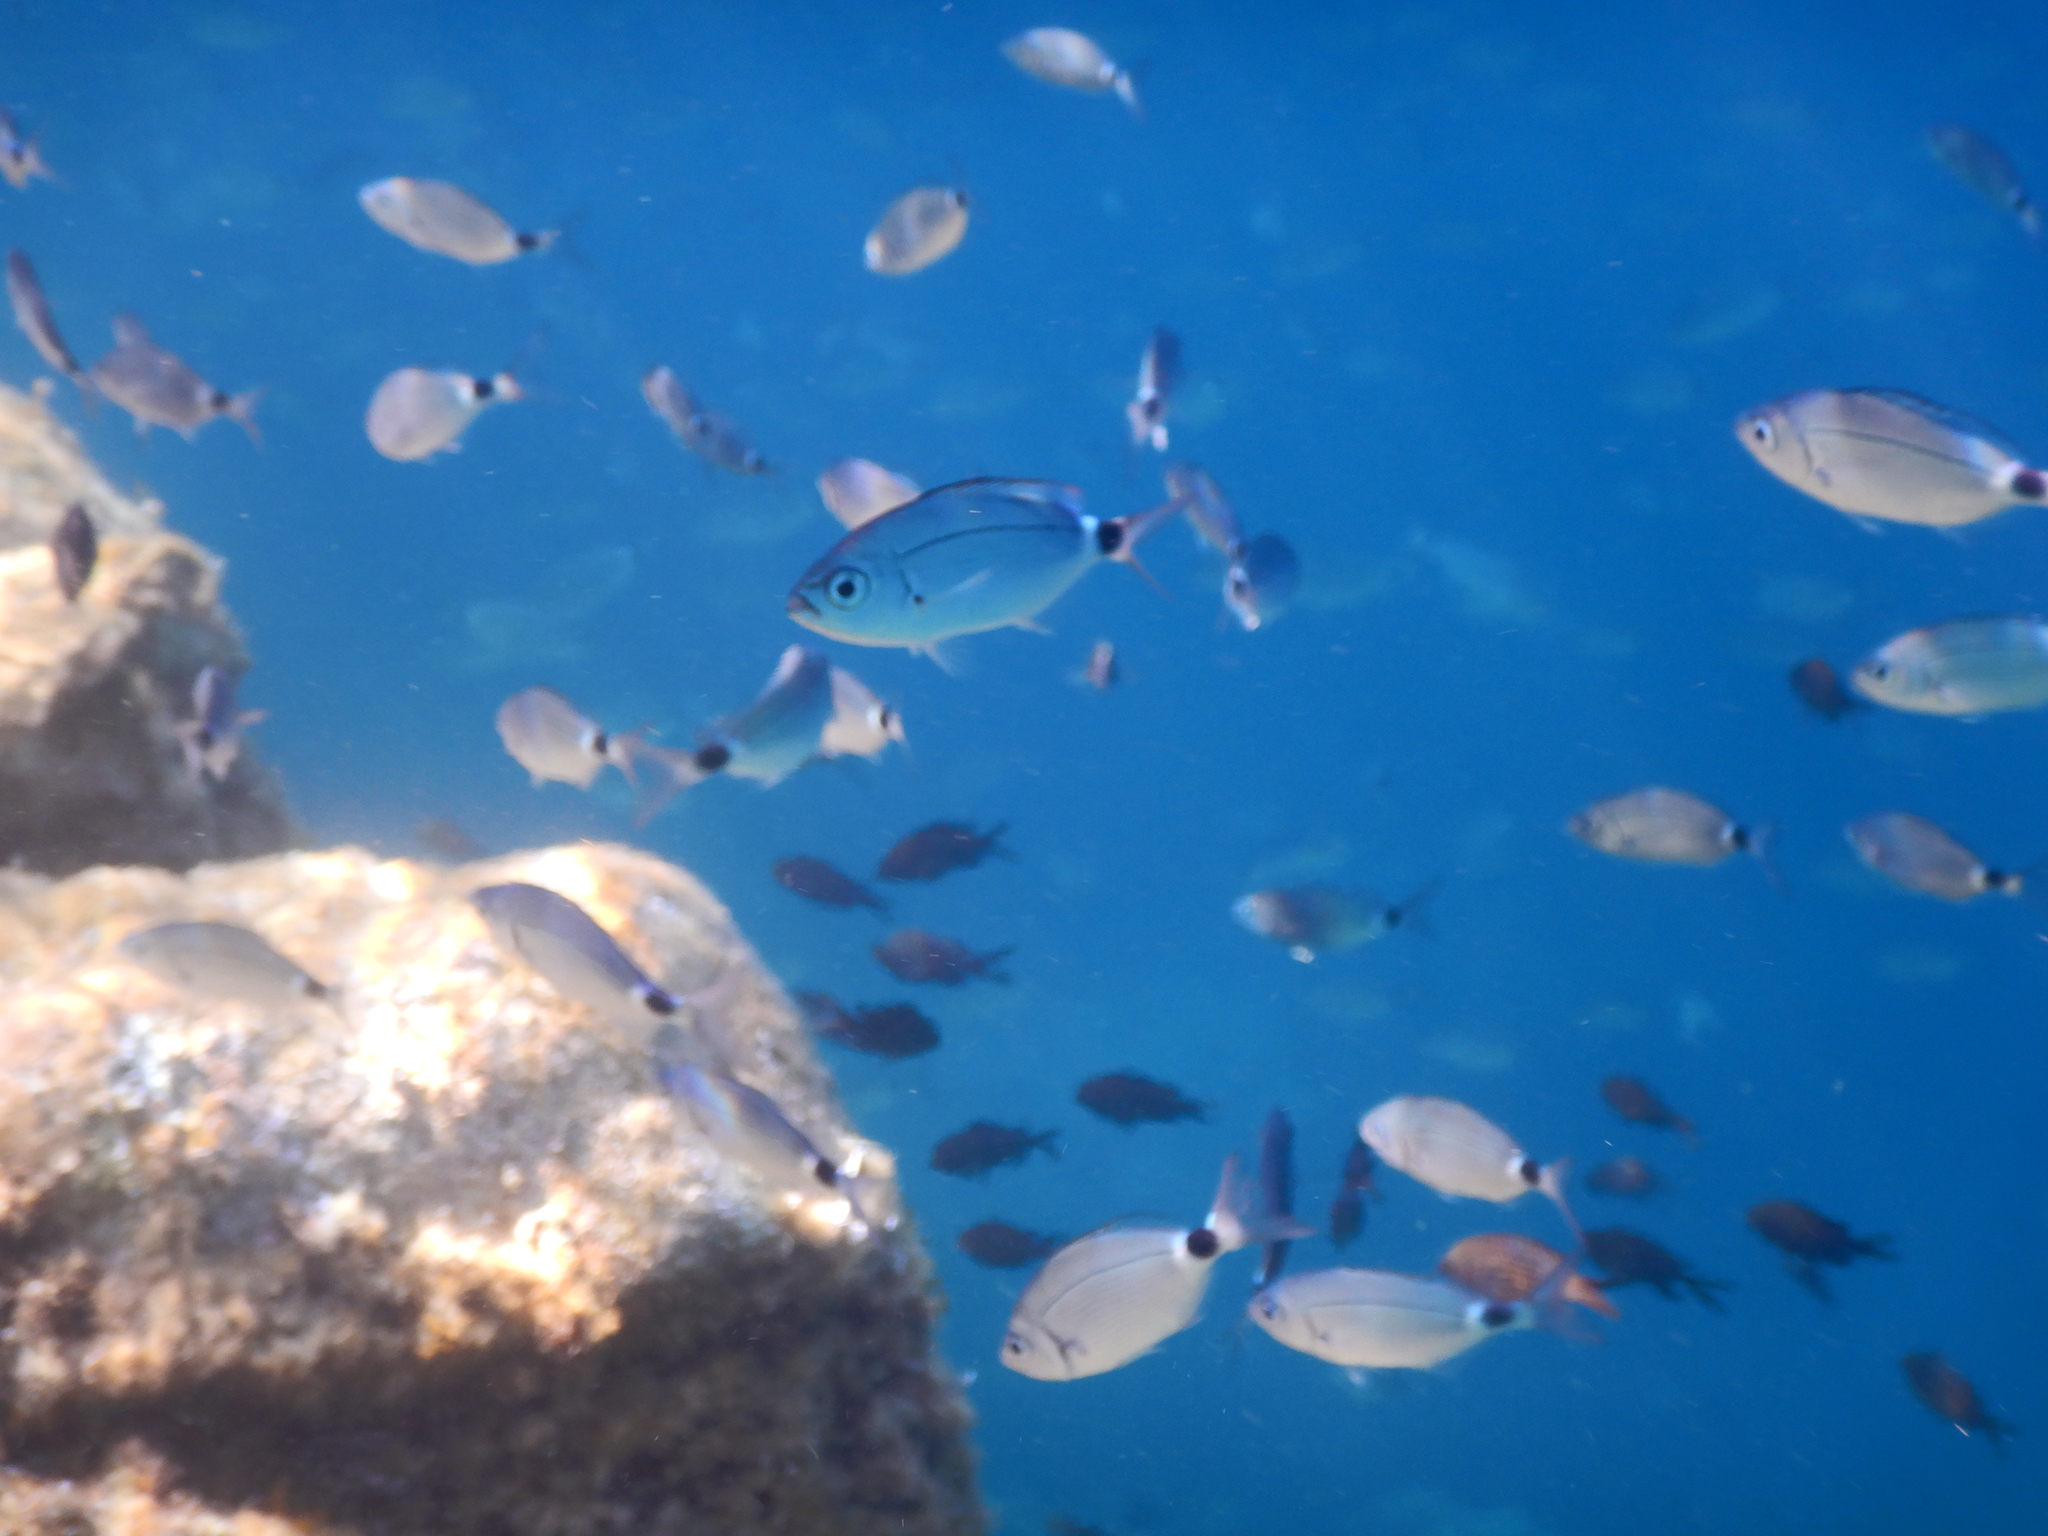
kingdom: Animalia
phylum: Chordata
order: Perciformes
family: Sparidae
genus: Oblada
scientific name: Oblada melanura
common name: Saddled seabream
